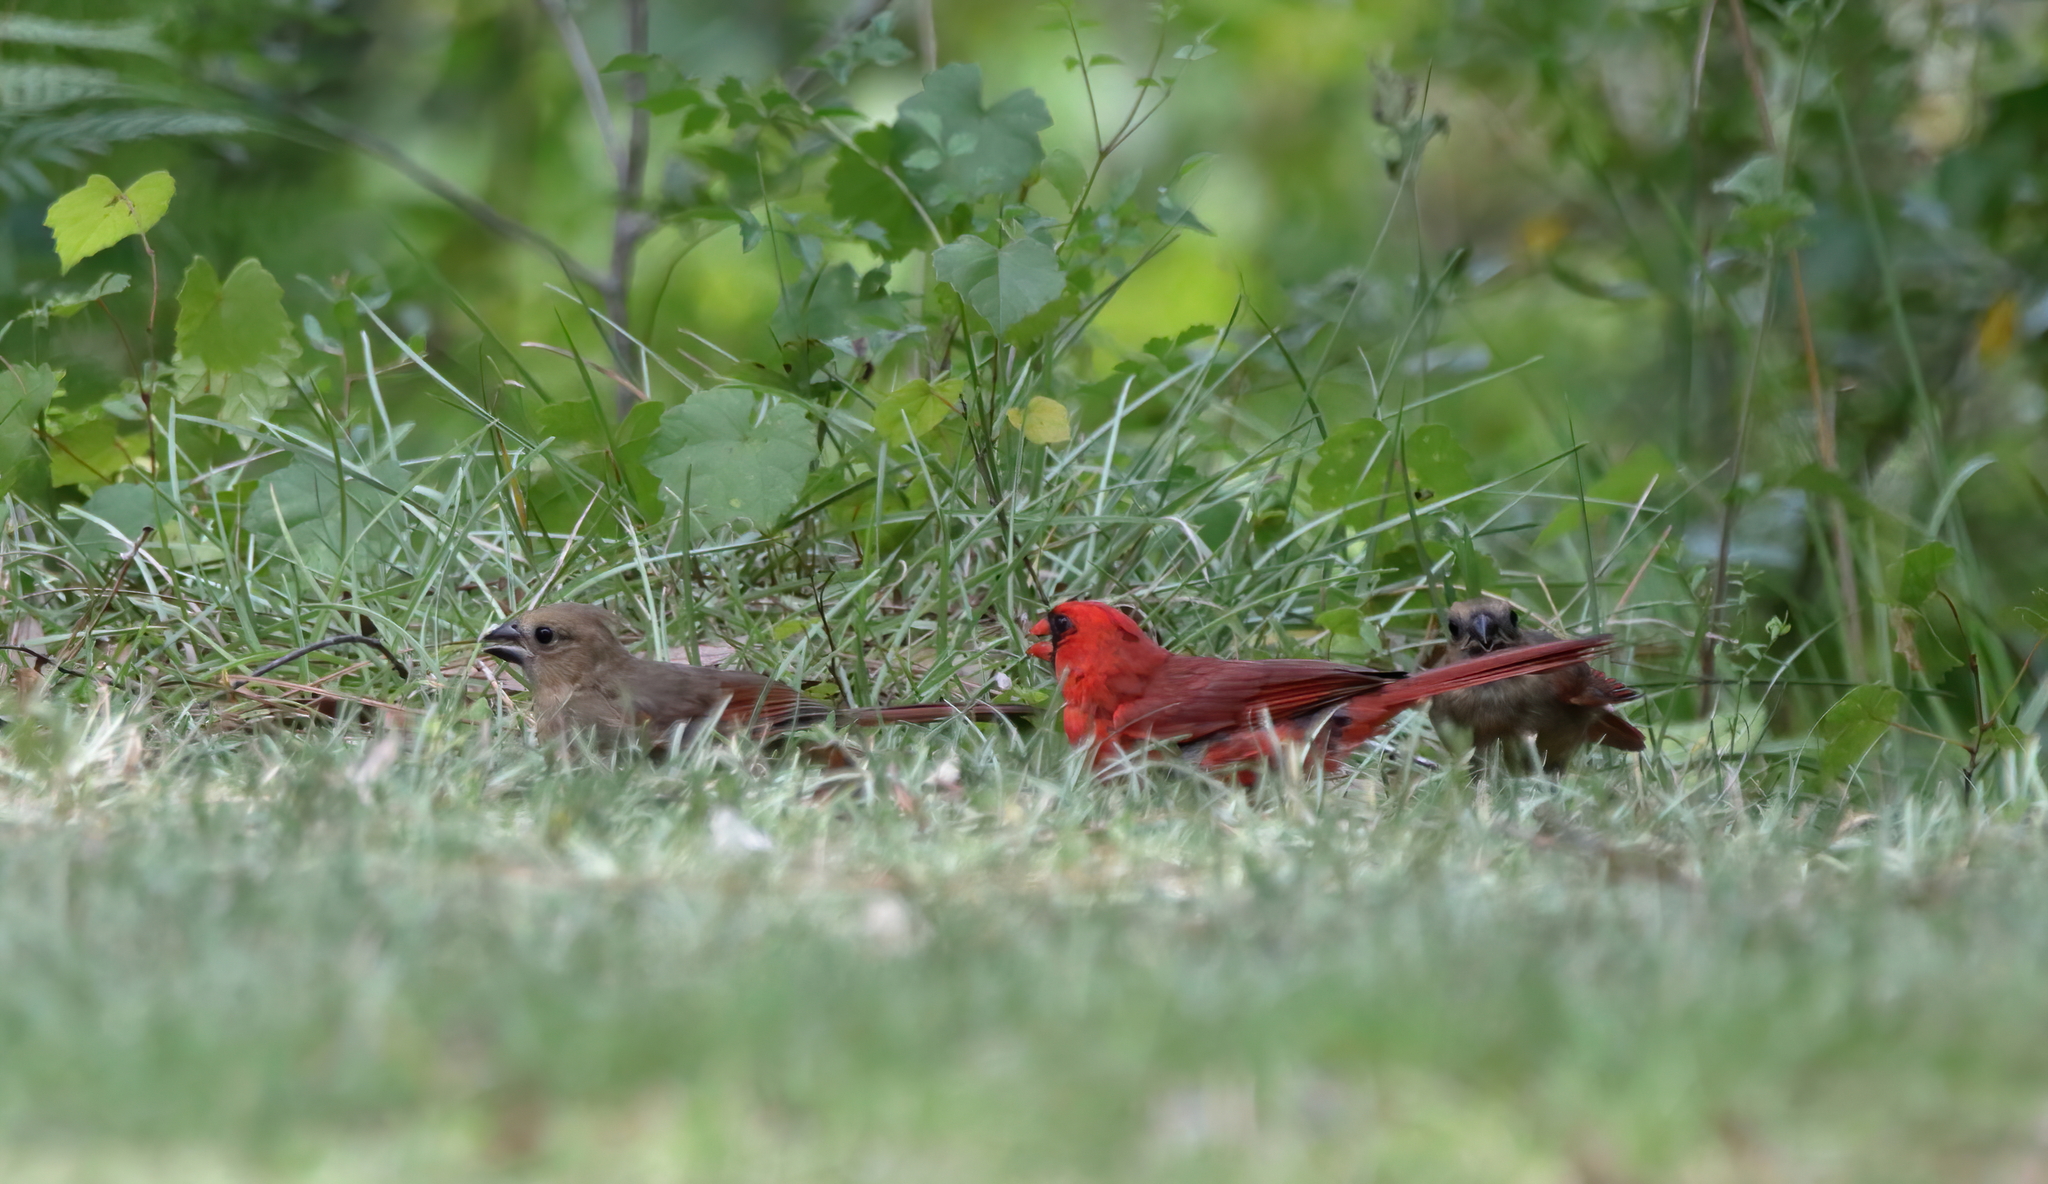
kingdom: Animalia
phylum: Chordata
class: Aves
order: Passeriformes
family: Cardinalidae
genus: Cardinalis
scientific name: Cardinalis cardinalis
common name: Northern cardinal
